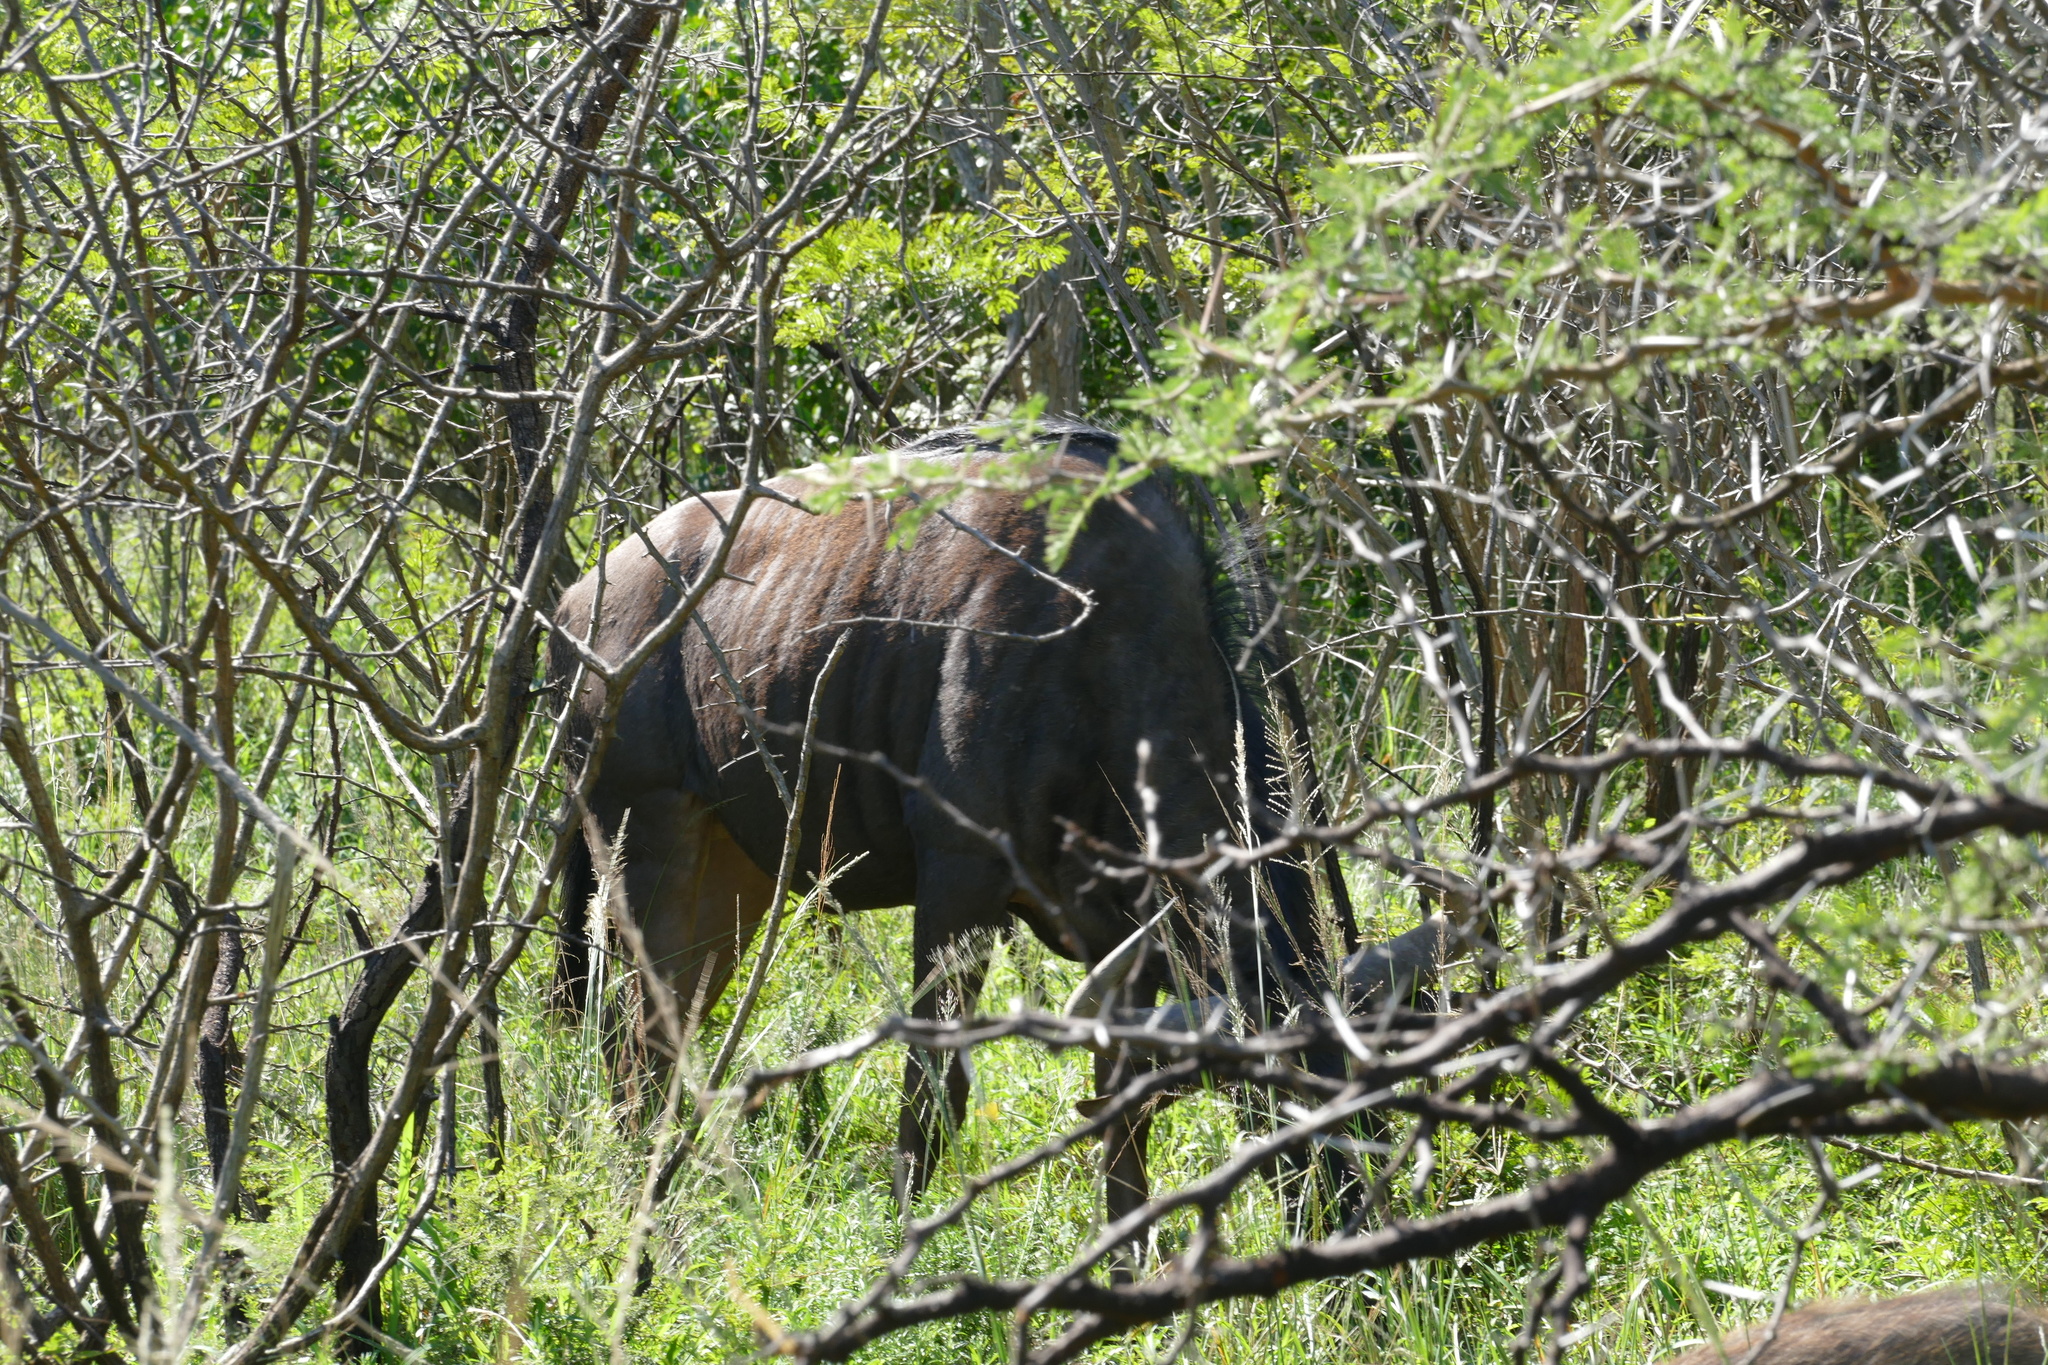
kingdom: Animalia
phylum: Chordata
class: Mammalia
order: Artiodactyla
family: Bovidae
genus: Connochaetes
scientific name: Connochaetes taurinus
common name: Blue wildebeest
